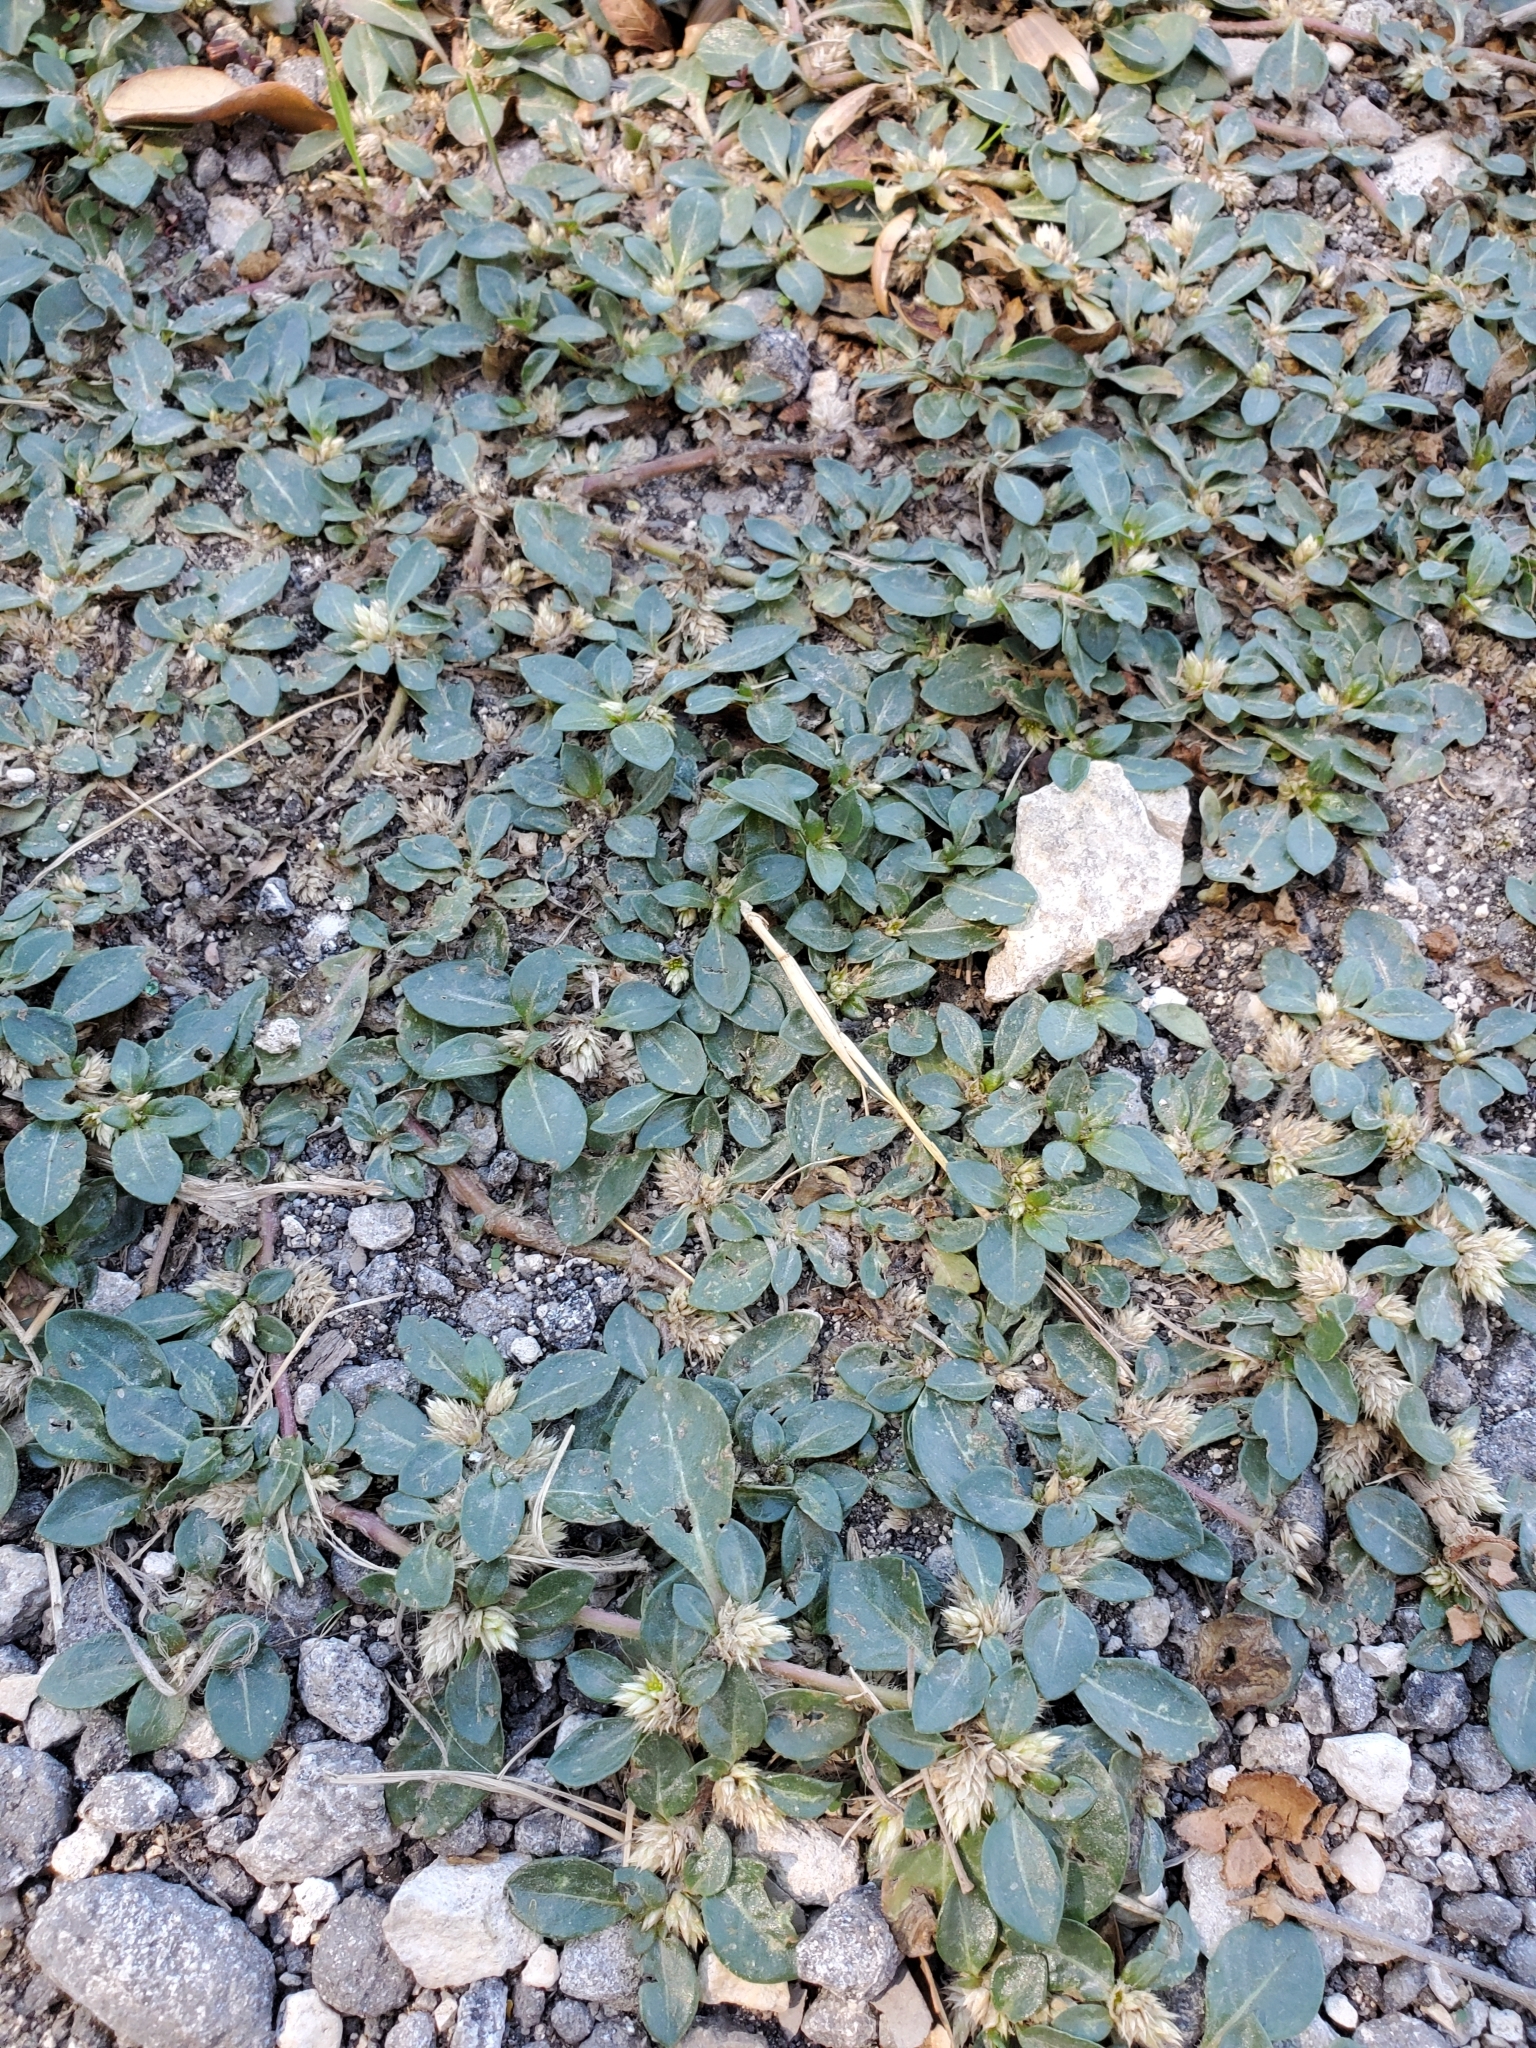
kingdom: Plantae
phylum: Tracheophyta
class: Magnoliopsida
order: Caryophyllales
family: Amaranthaceae
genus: Alternanthera
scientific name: Alternanthera caracasana
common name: Washerwoman
